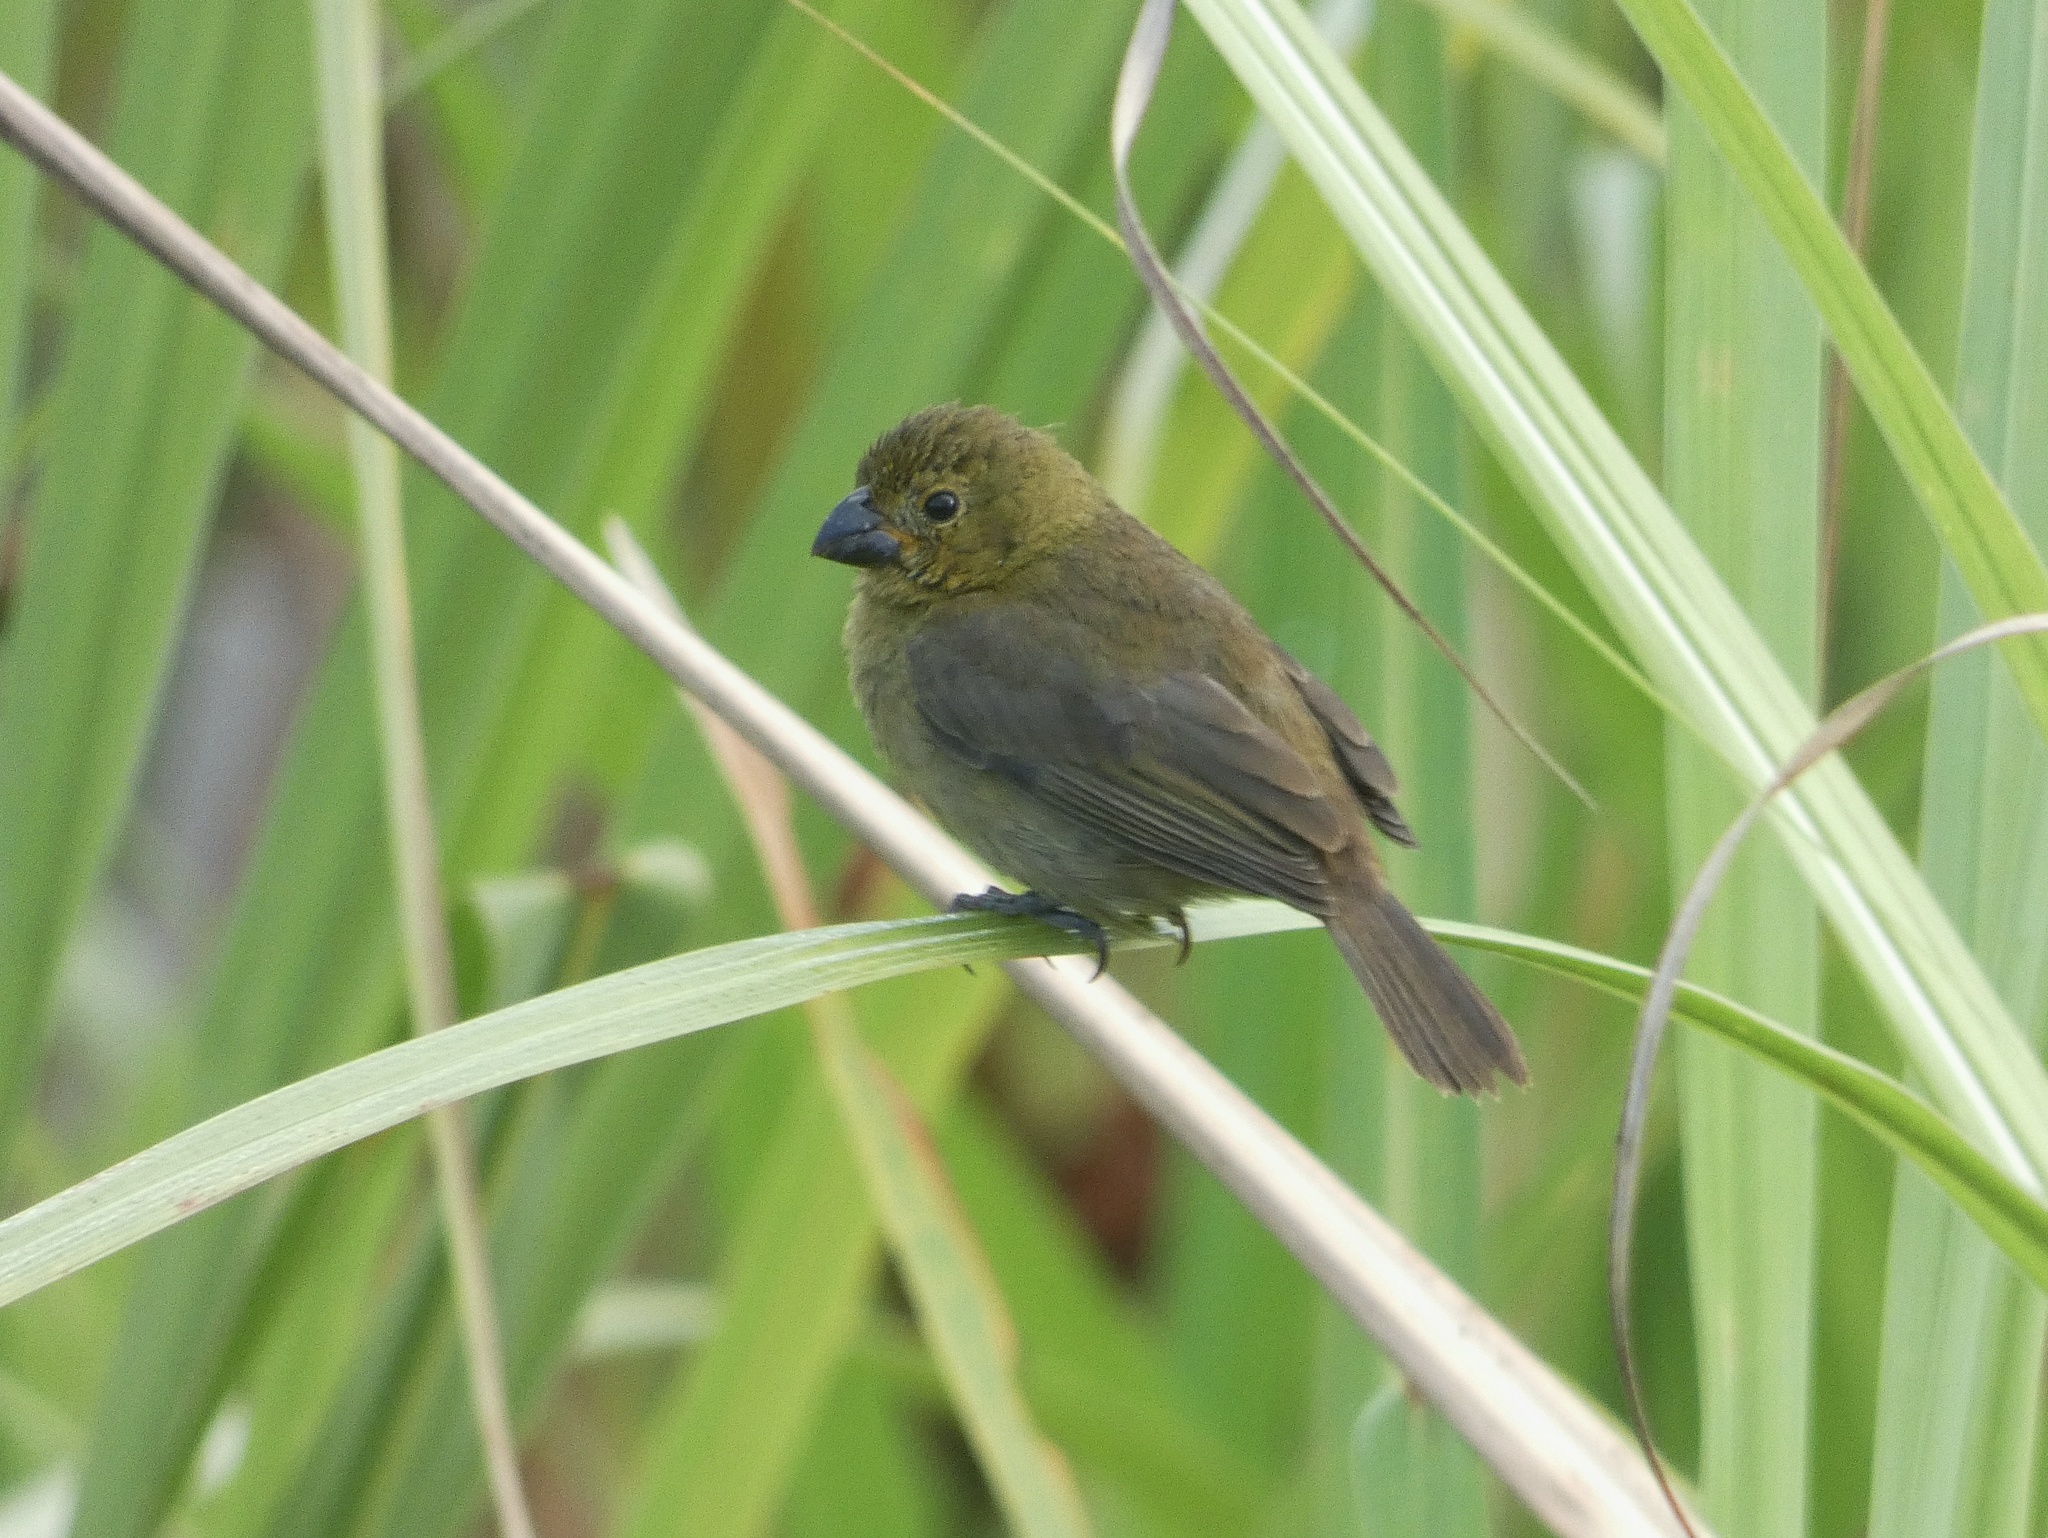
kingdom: Animalia
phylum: Chordata
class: Aves
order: Passeriformes
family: Thraupidae
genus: Sporophila
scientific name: Sporophila corvina
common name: Variable seedeater
